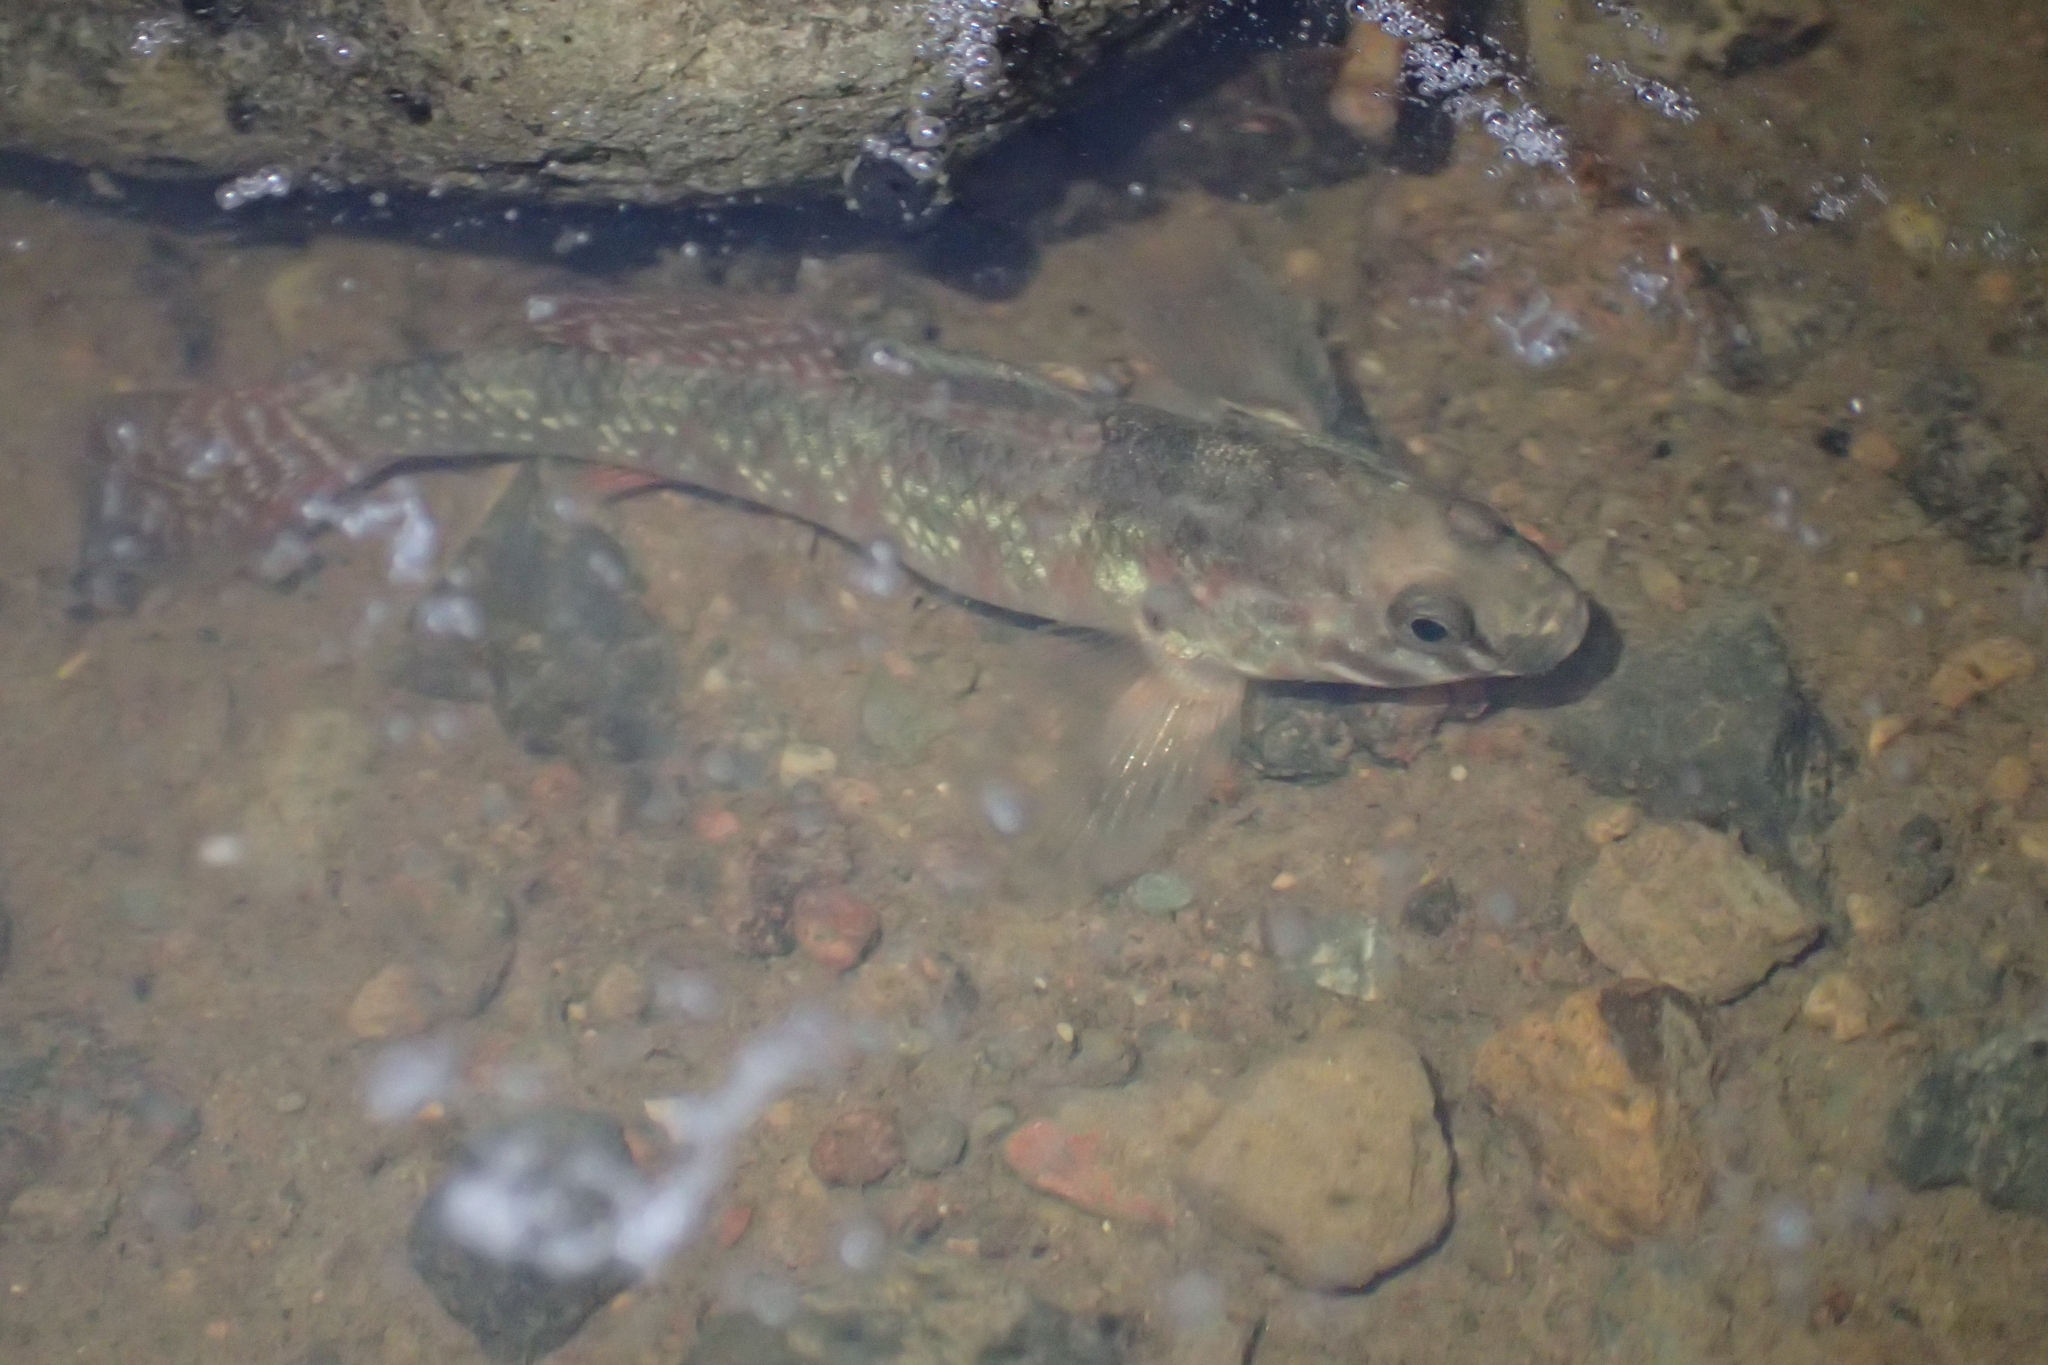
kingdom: Animalia
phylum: Chordata
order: Perciformes
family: Eleotridae
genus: Gobiomorphus
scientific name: Gobiomorphus huttoni
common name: Redfin bully
